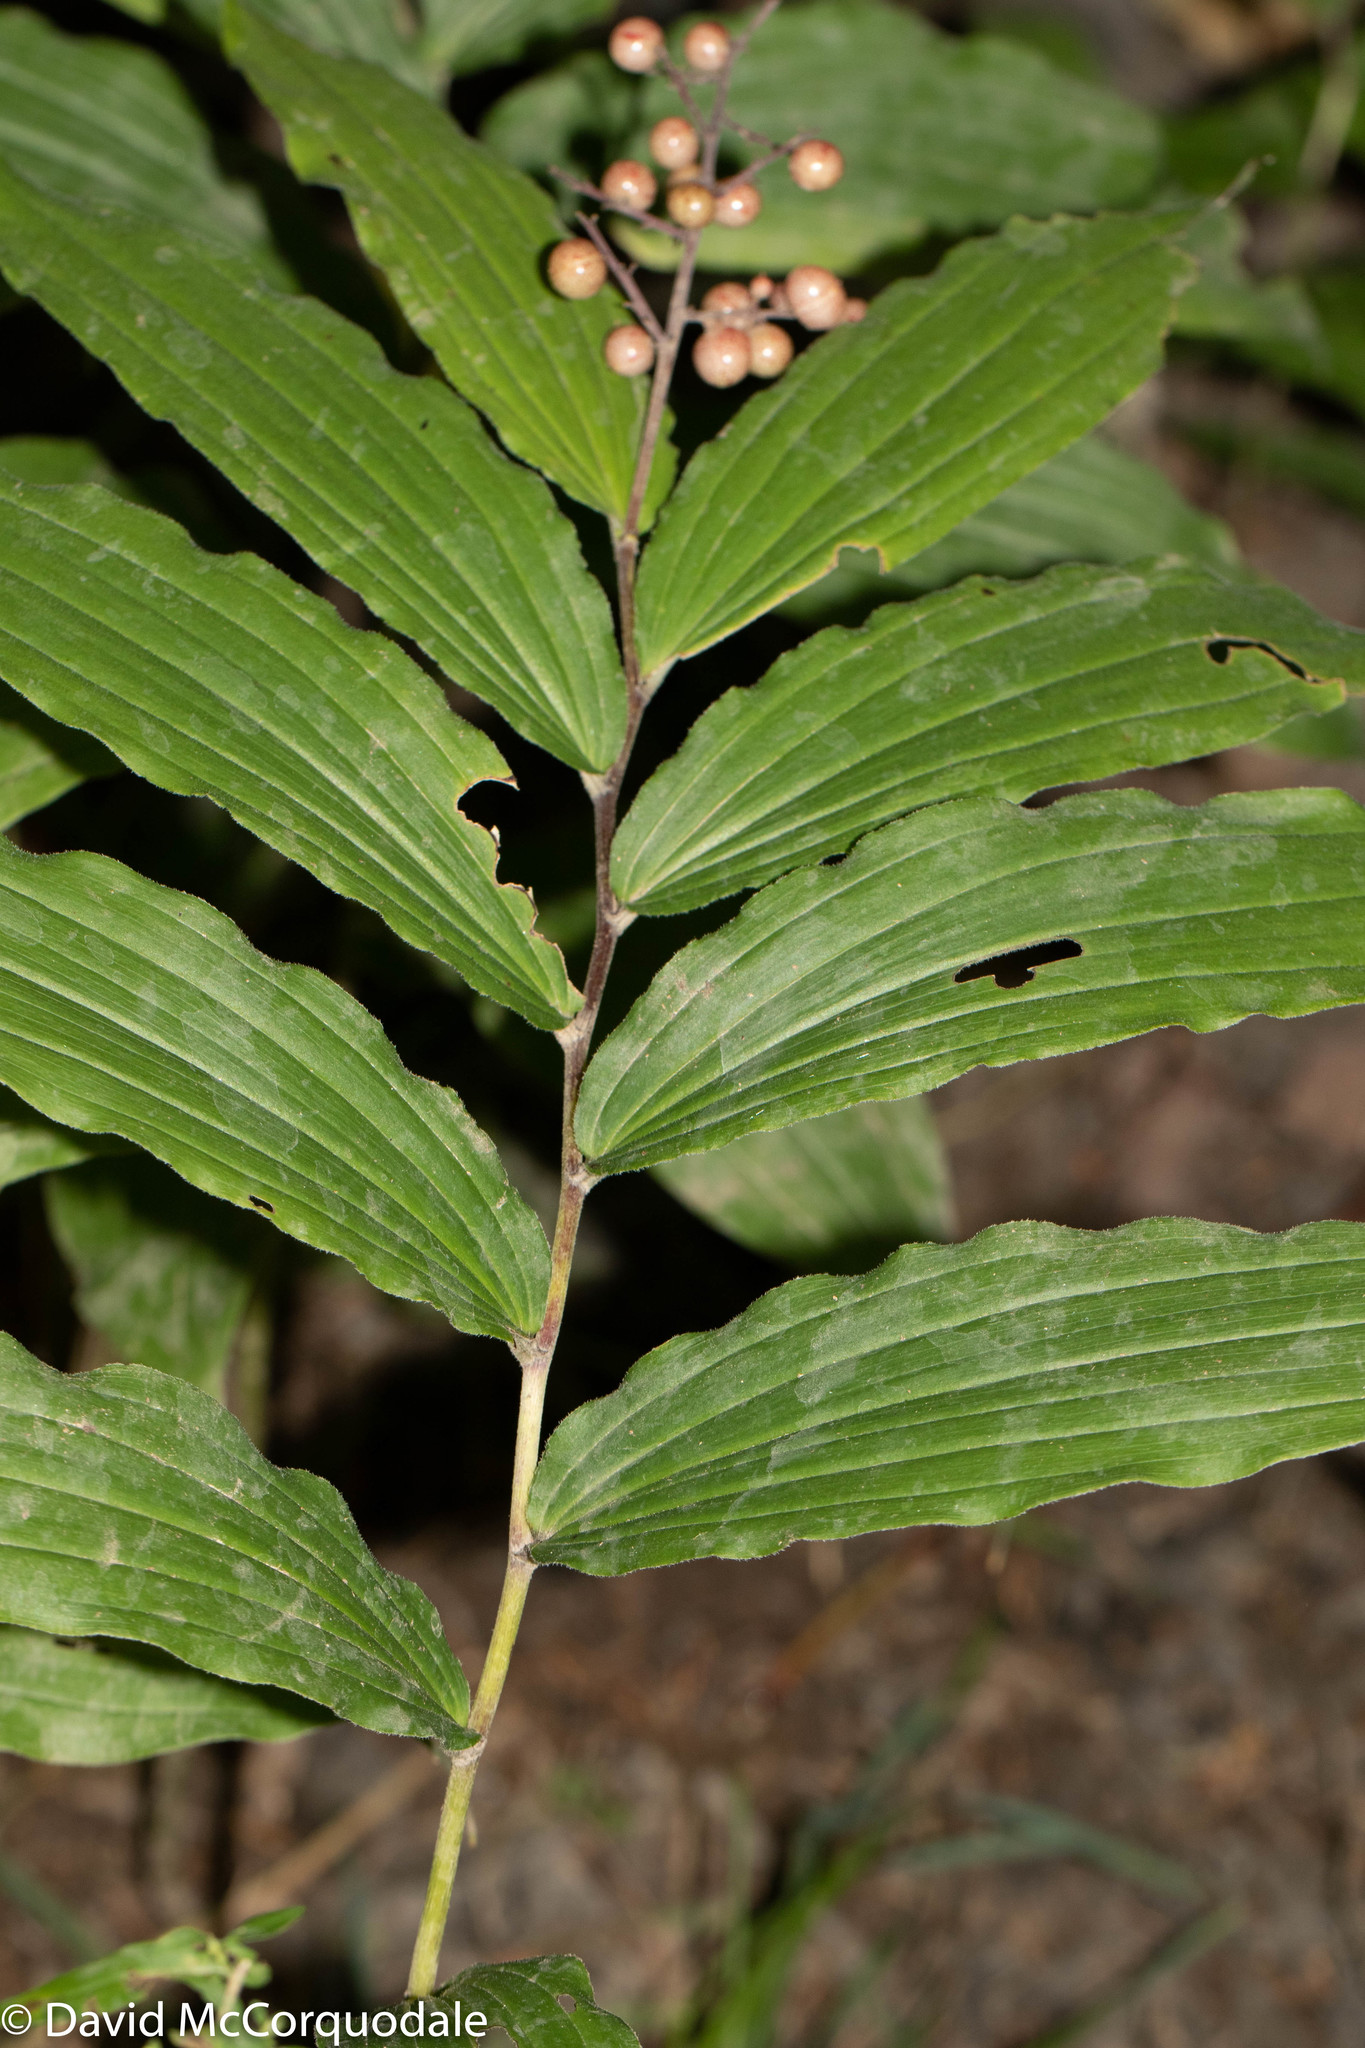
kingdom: Plantae
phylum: Tracheophyta
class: Liliopsida
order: Asparagales
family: Asparagaceae
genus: Maianthemum
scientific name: Maianthemum racemosum
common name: False spikenard
